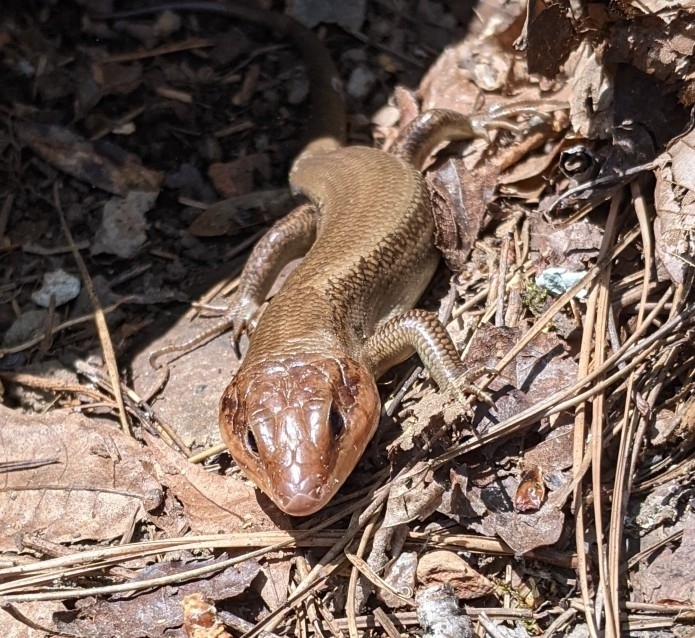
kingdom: Animalia
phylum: Chordata
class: Squamata
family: Scincidae
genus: Plestiodon
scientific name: Plestiodon laticeps
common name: Broadhead skink
